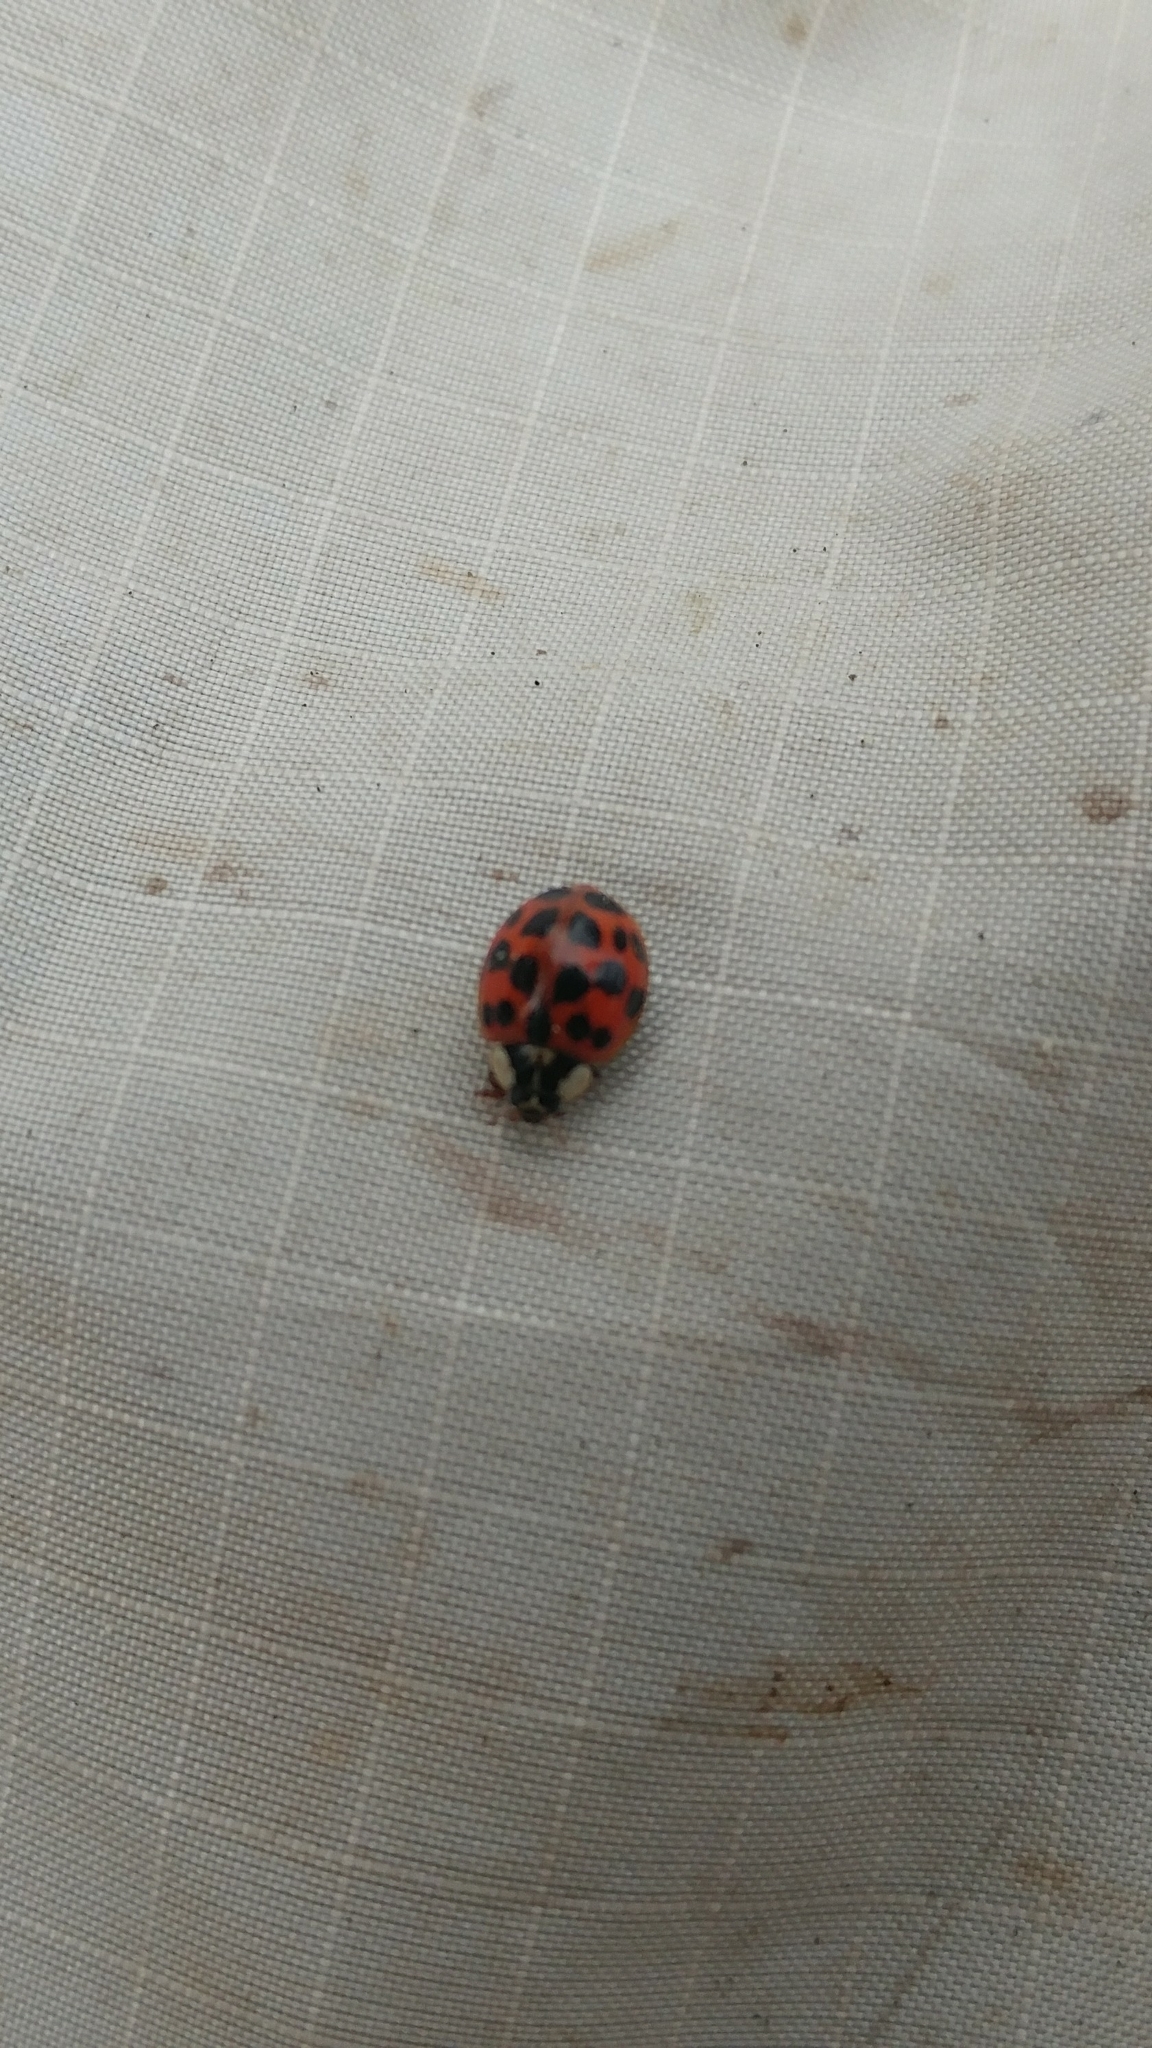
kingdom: Animalia
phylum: Arthropoda
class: Insecta
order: Coleoptera
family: Coccinellidae
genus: Harmonia
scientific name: Harmonia axyridis
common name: Harlequin ladybird
